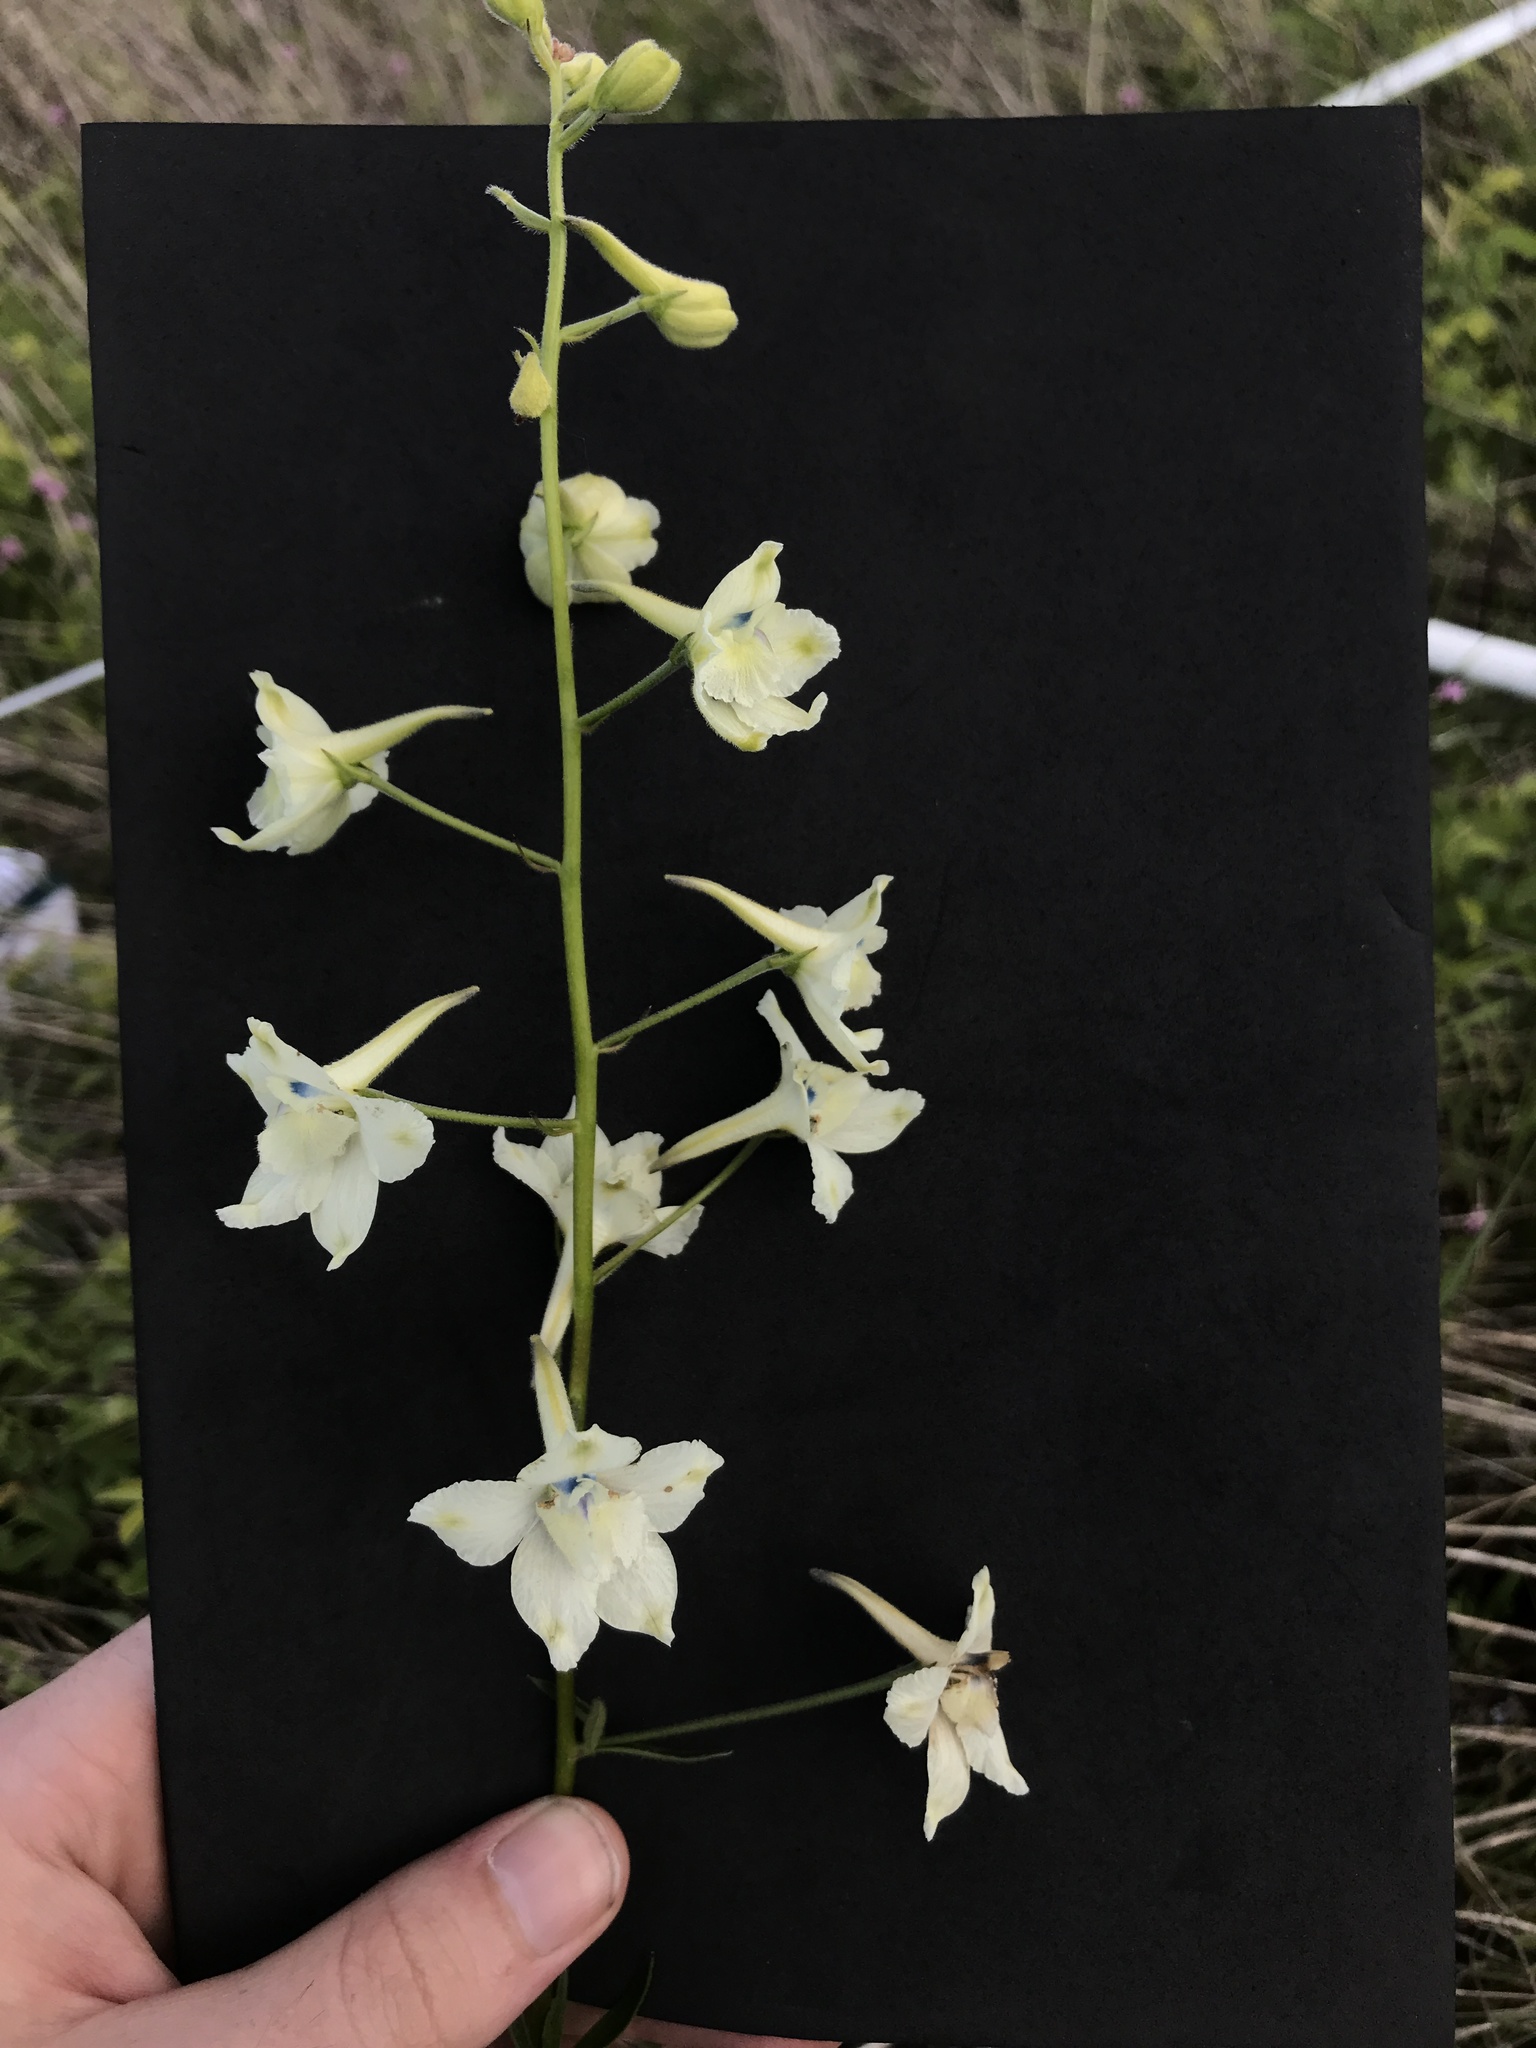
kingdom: Plantae
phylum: Tracheophyta
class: Magnoliopsida
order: Ranunculales
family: Ranunculaceae
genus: Delphinium
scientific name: Delphinium pavonaceum
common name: Peacock larkspur
